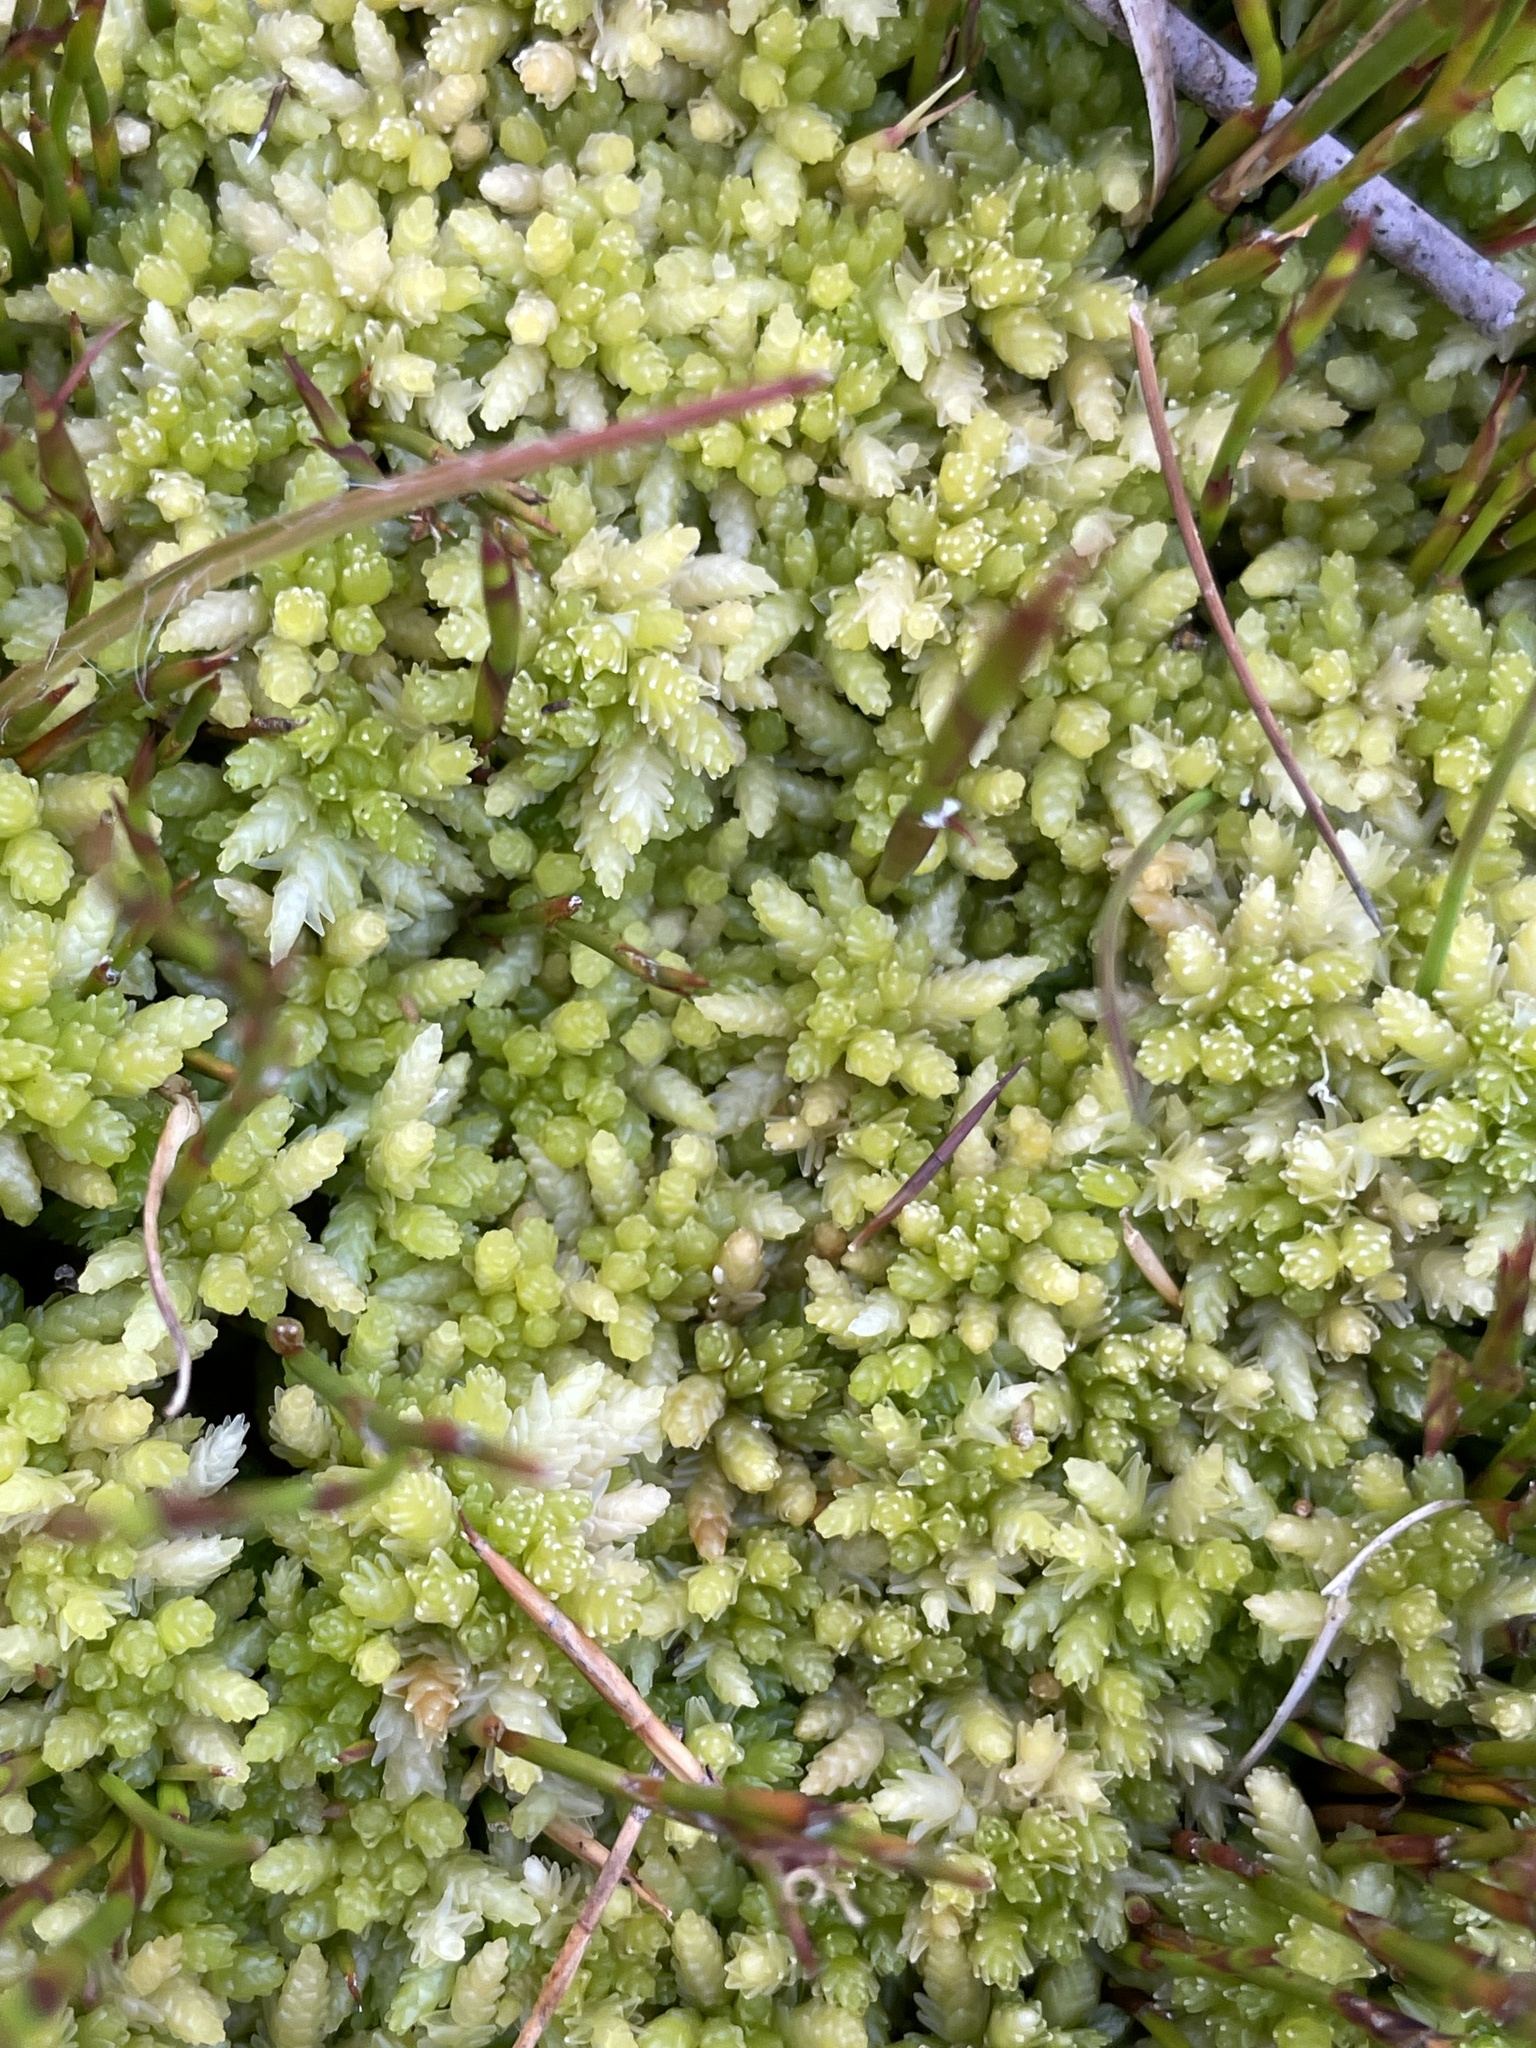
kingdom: Plantae
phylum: Bryophyta
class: Sphagnopsida
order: Sphagnales
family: Sphagnaceae
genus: Sphagnum
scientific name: Sphagnum cristatum
